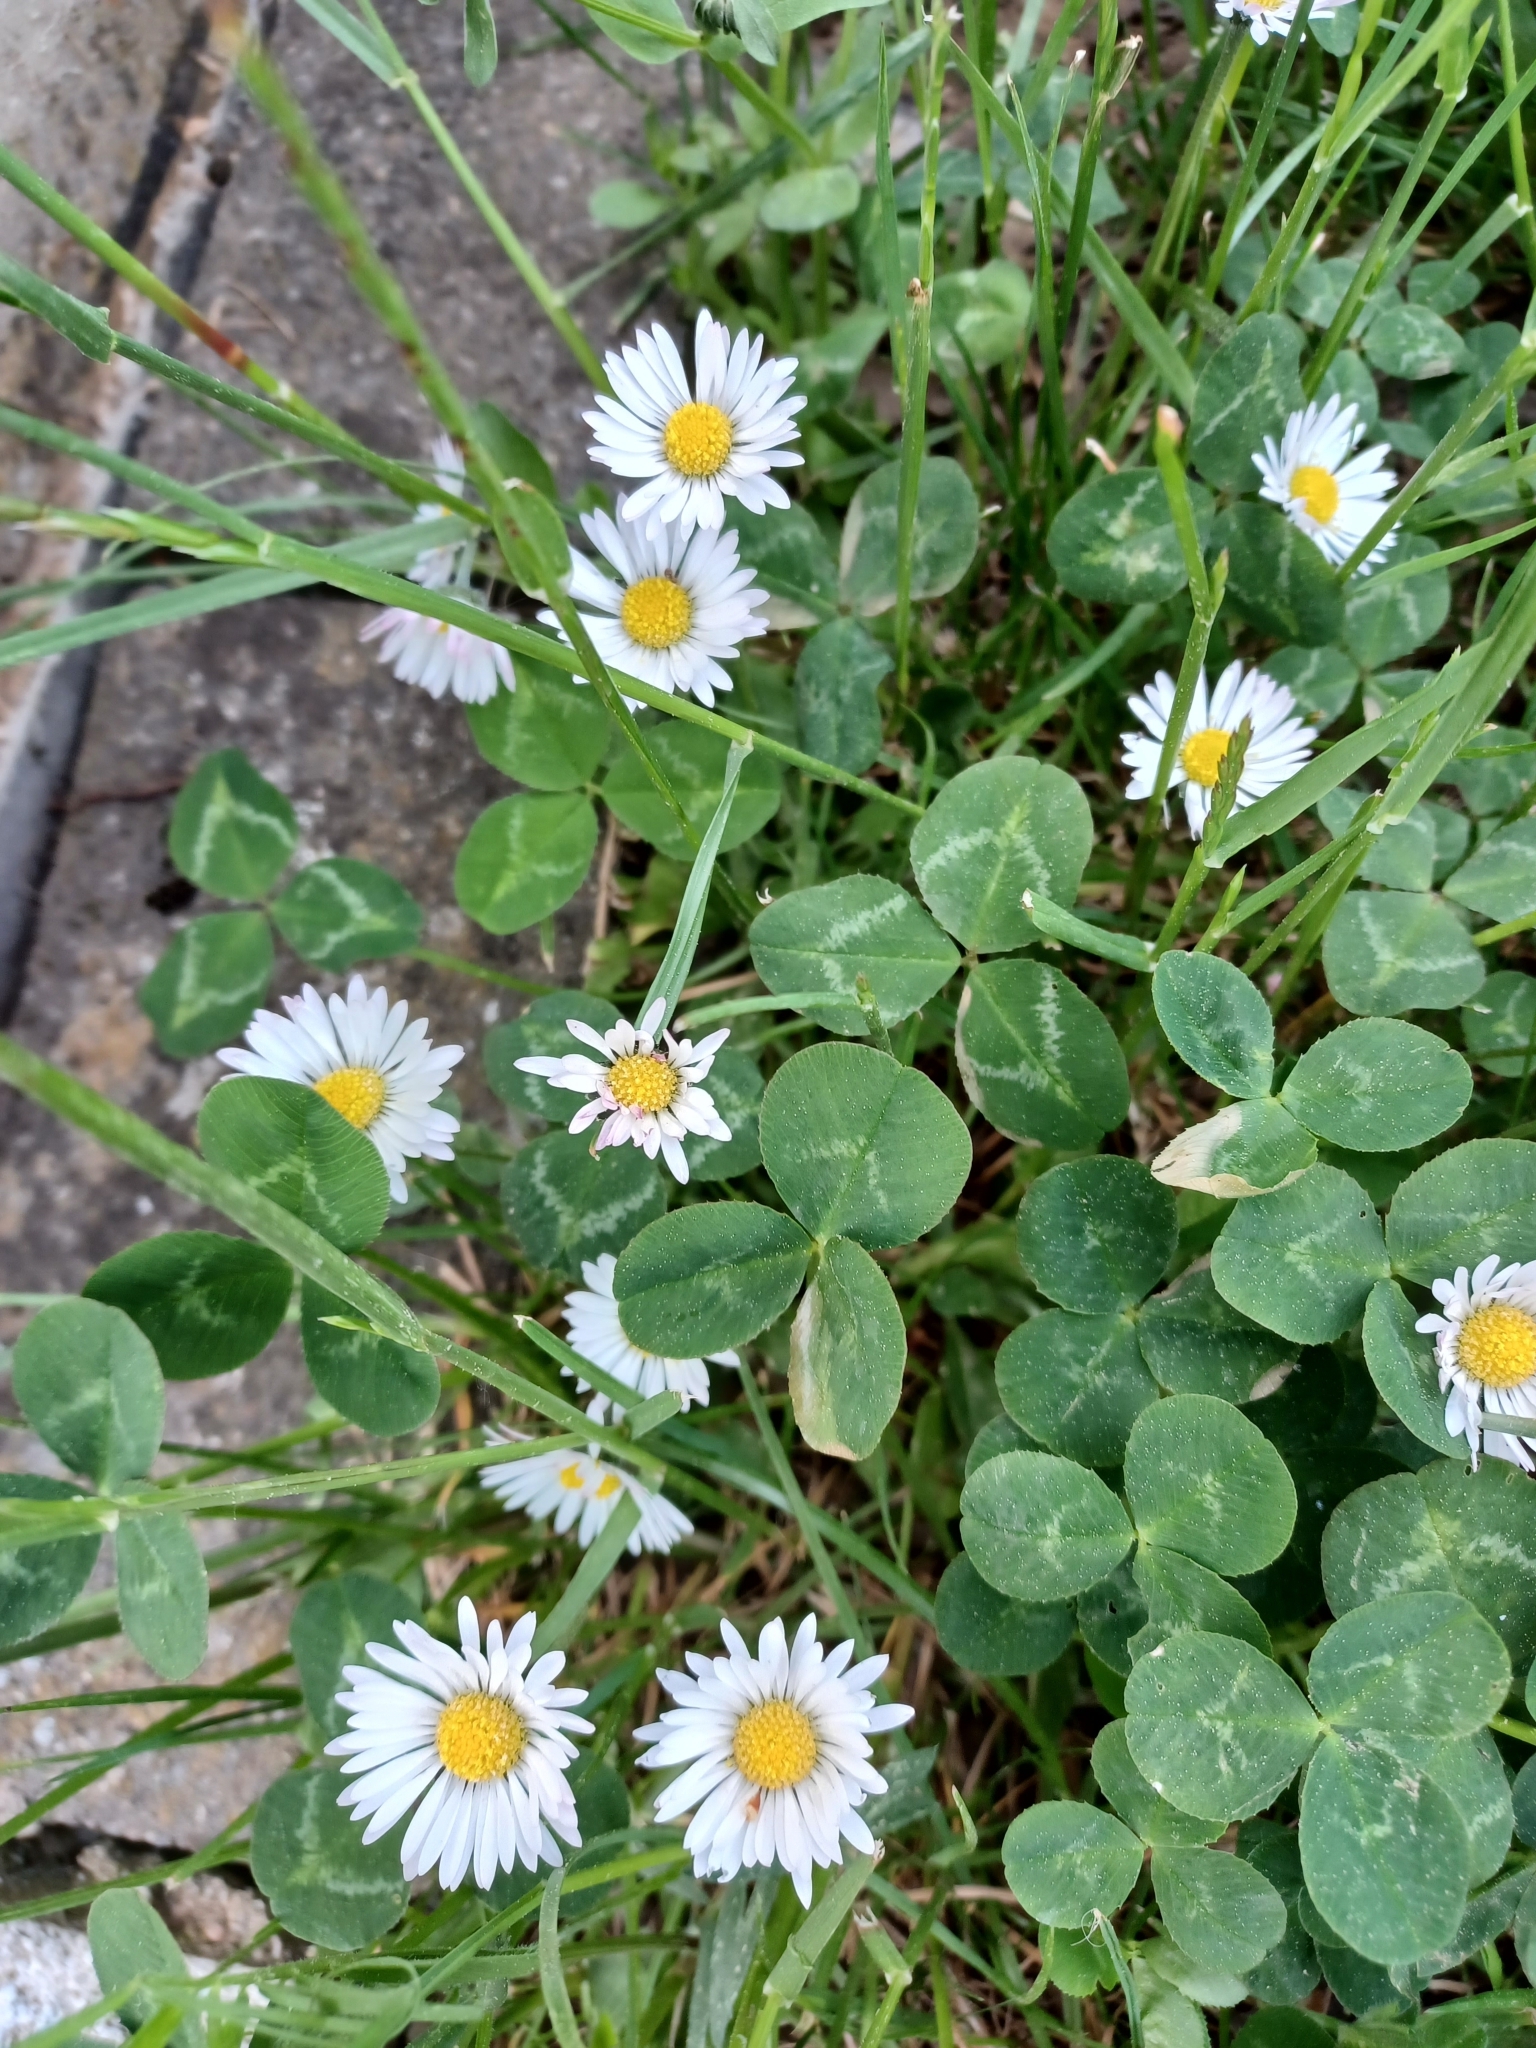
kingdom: Plantae
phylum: Tracheophyta
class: Magnoliopsida
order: Asterales
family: Asteraceae
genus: Bellis
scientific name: Bellis perennis
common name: Lawndaisy
